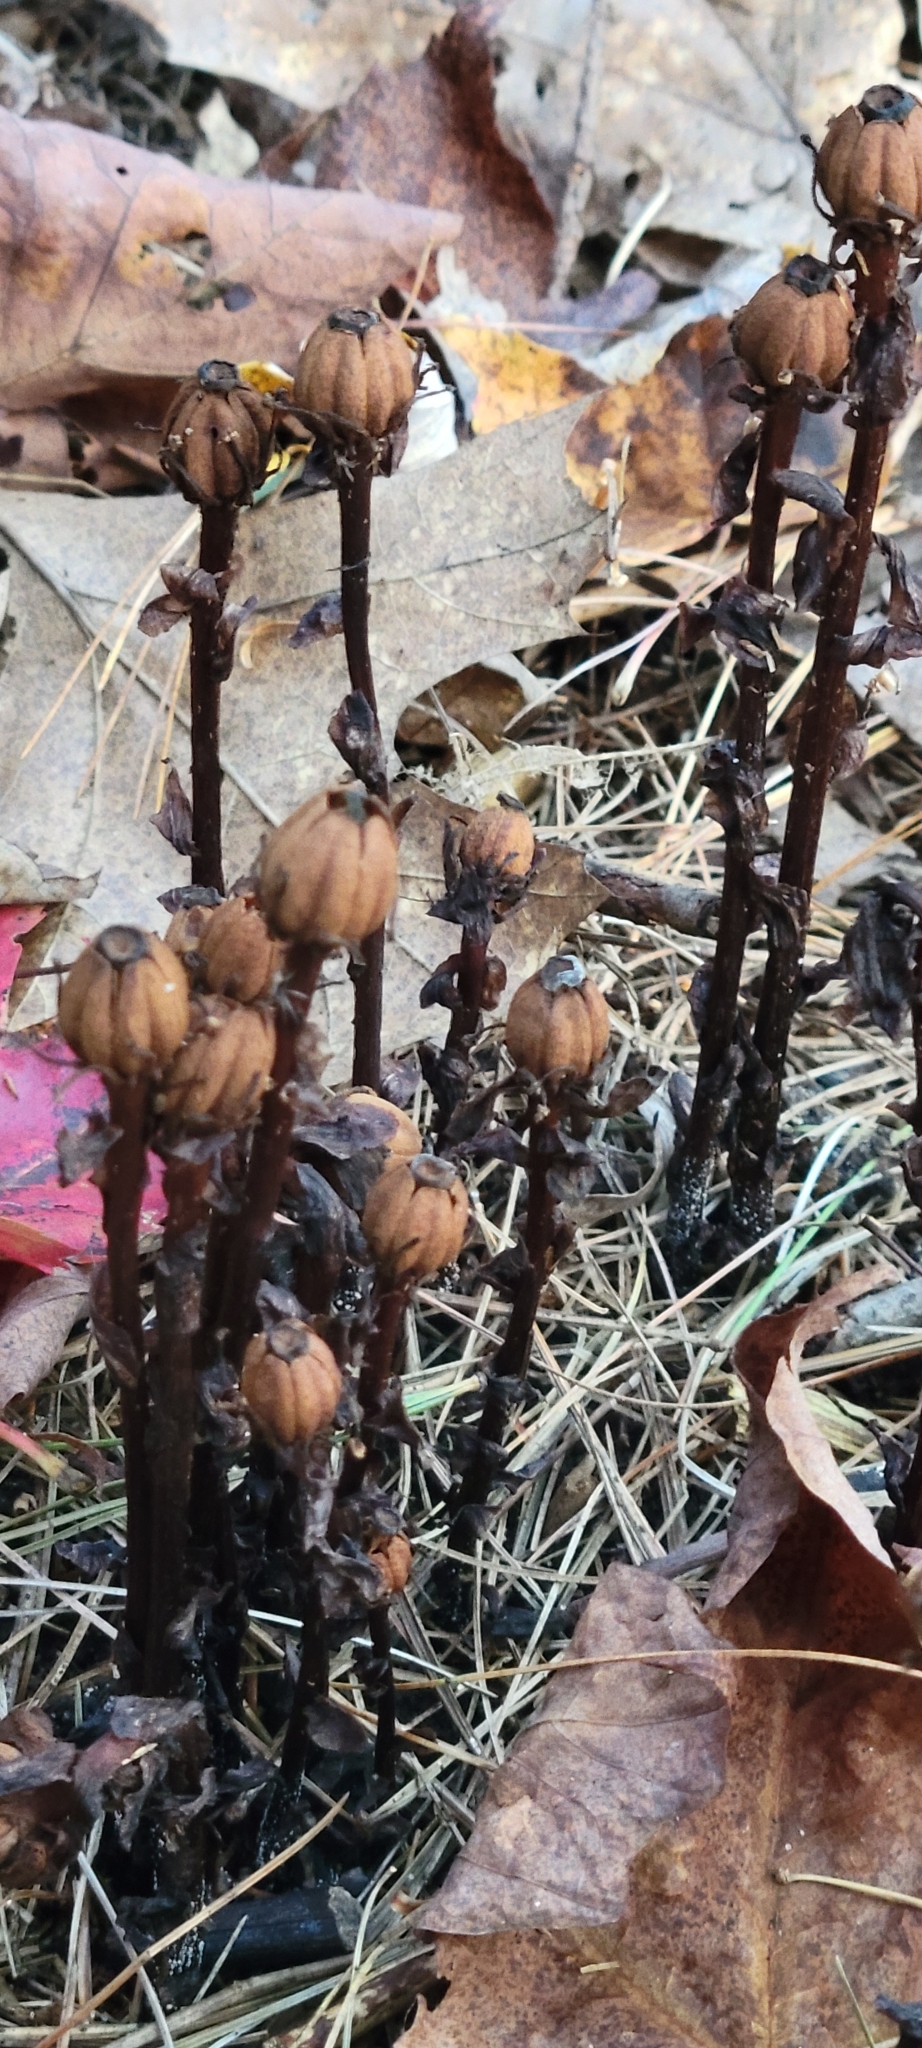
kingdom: Plantae
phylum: Tracheophyta
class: Magnoliopsida
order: Ericales
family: Ericaceae
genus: Monotropa
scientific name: Monotropa uniflora
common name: Convulsion root
